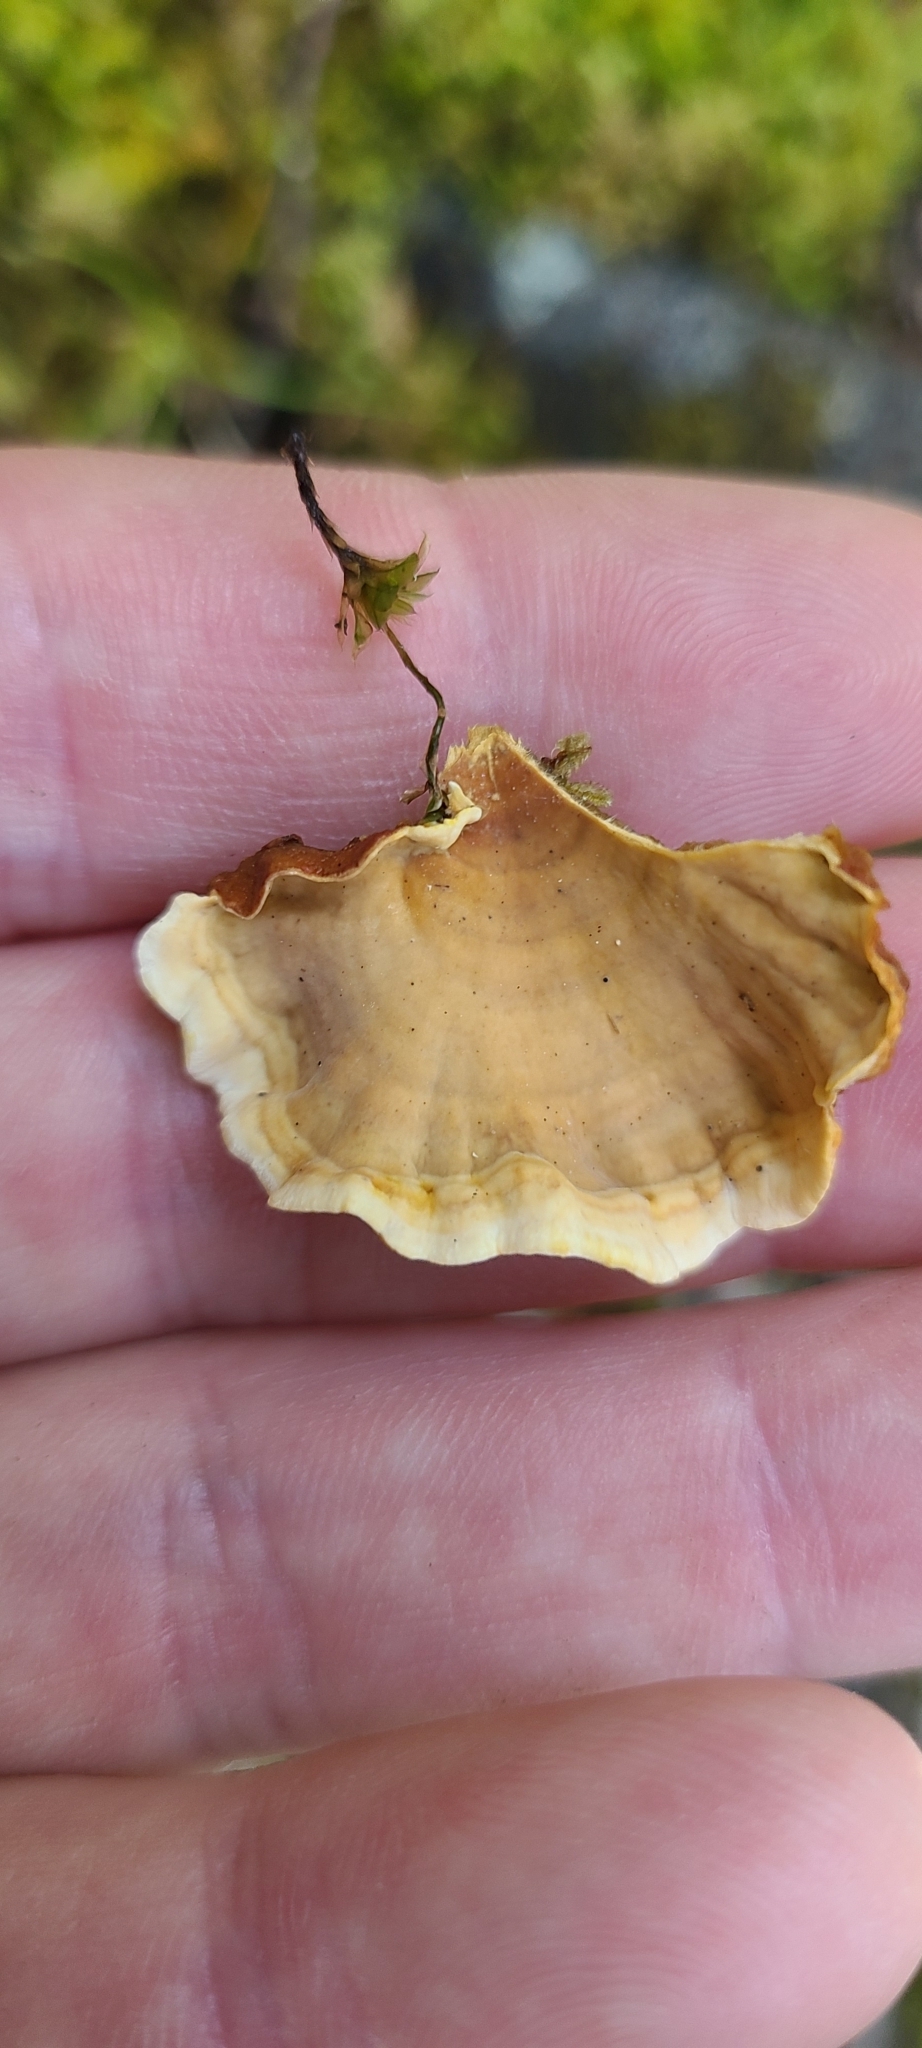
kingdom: Fungi
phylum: Basidiomycota
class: Agaricomycetes
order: Russulales
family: Stereaceae
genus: Stereum
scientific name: Stereum versicolor
